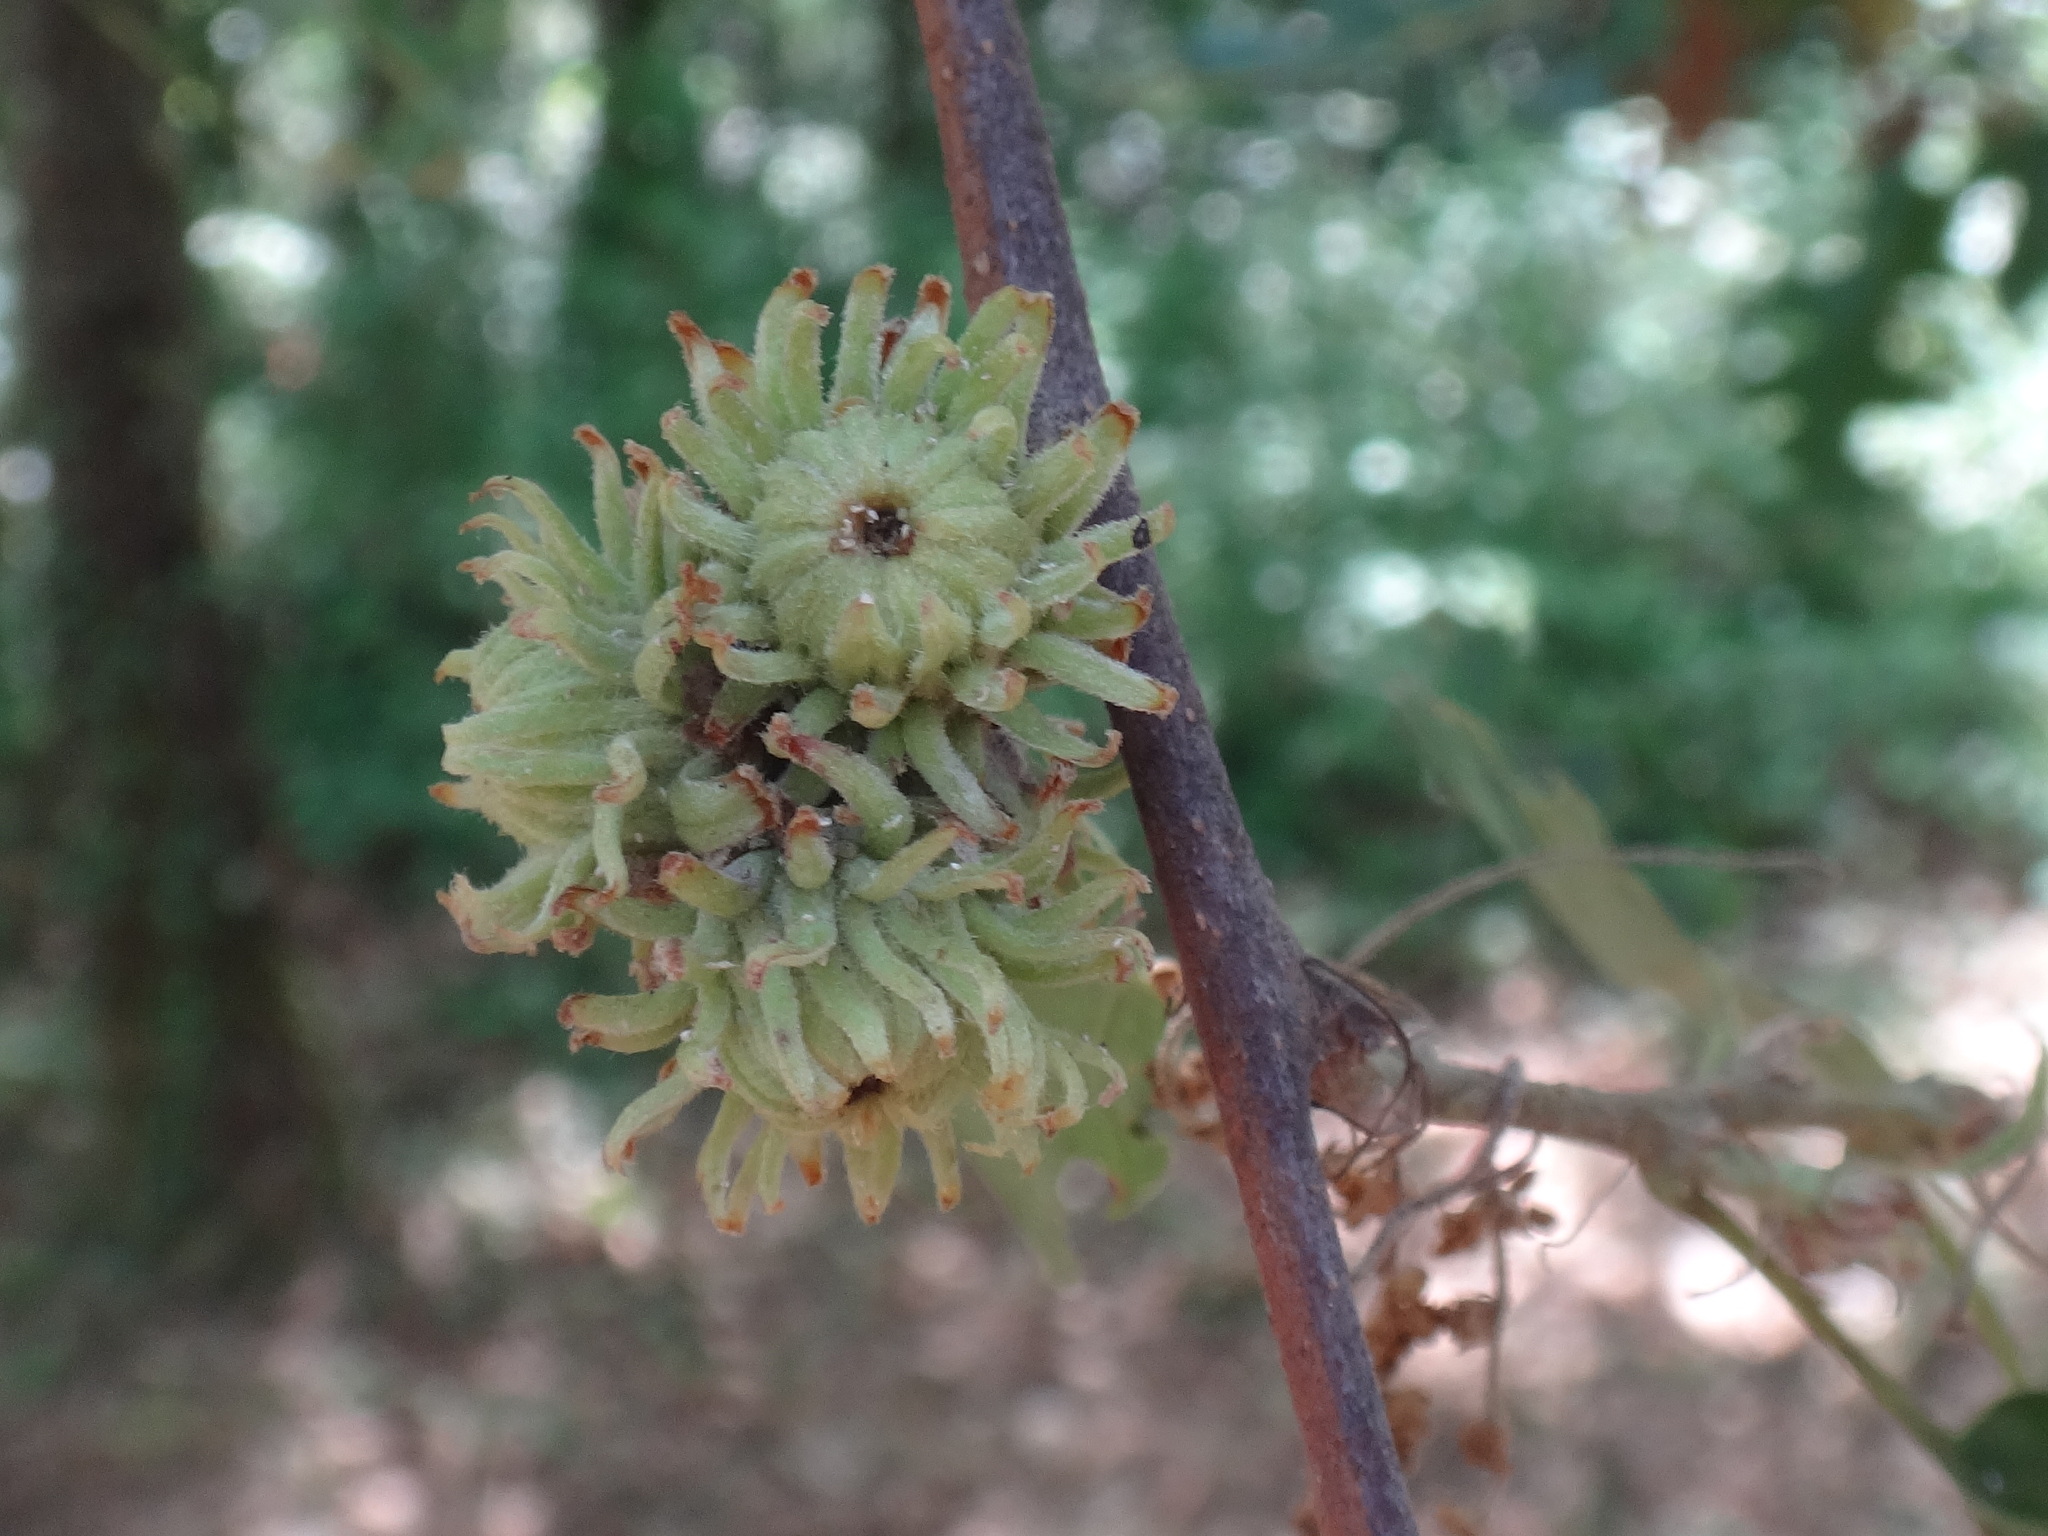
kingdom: Plantae
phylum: Tracheophyta
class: Magnoliopsida
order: Fagales
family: Fagaceae
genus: Quercus
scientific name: Quercus cerris
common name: Turkey oak
